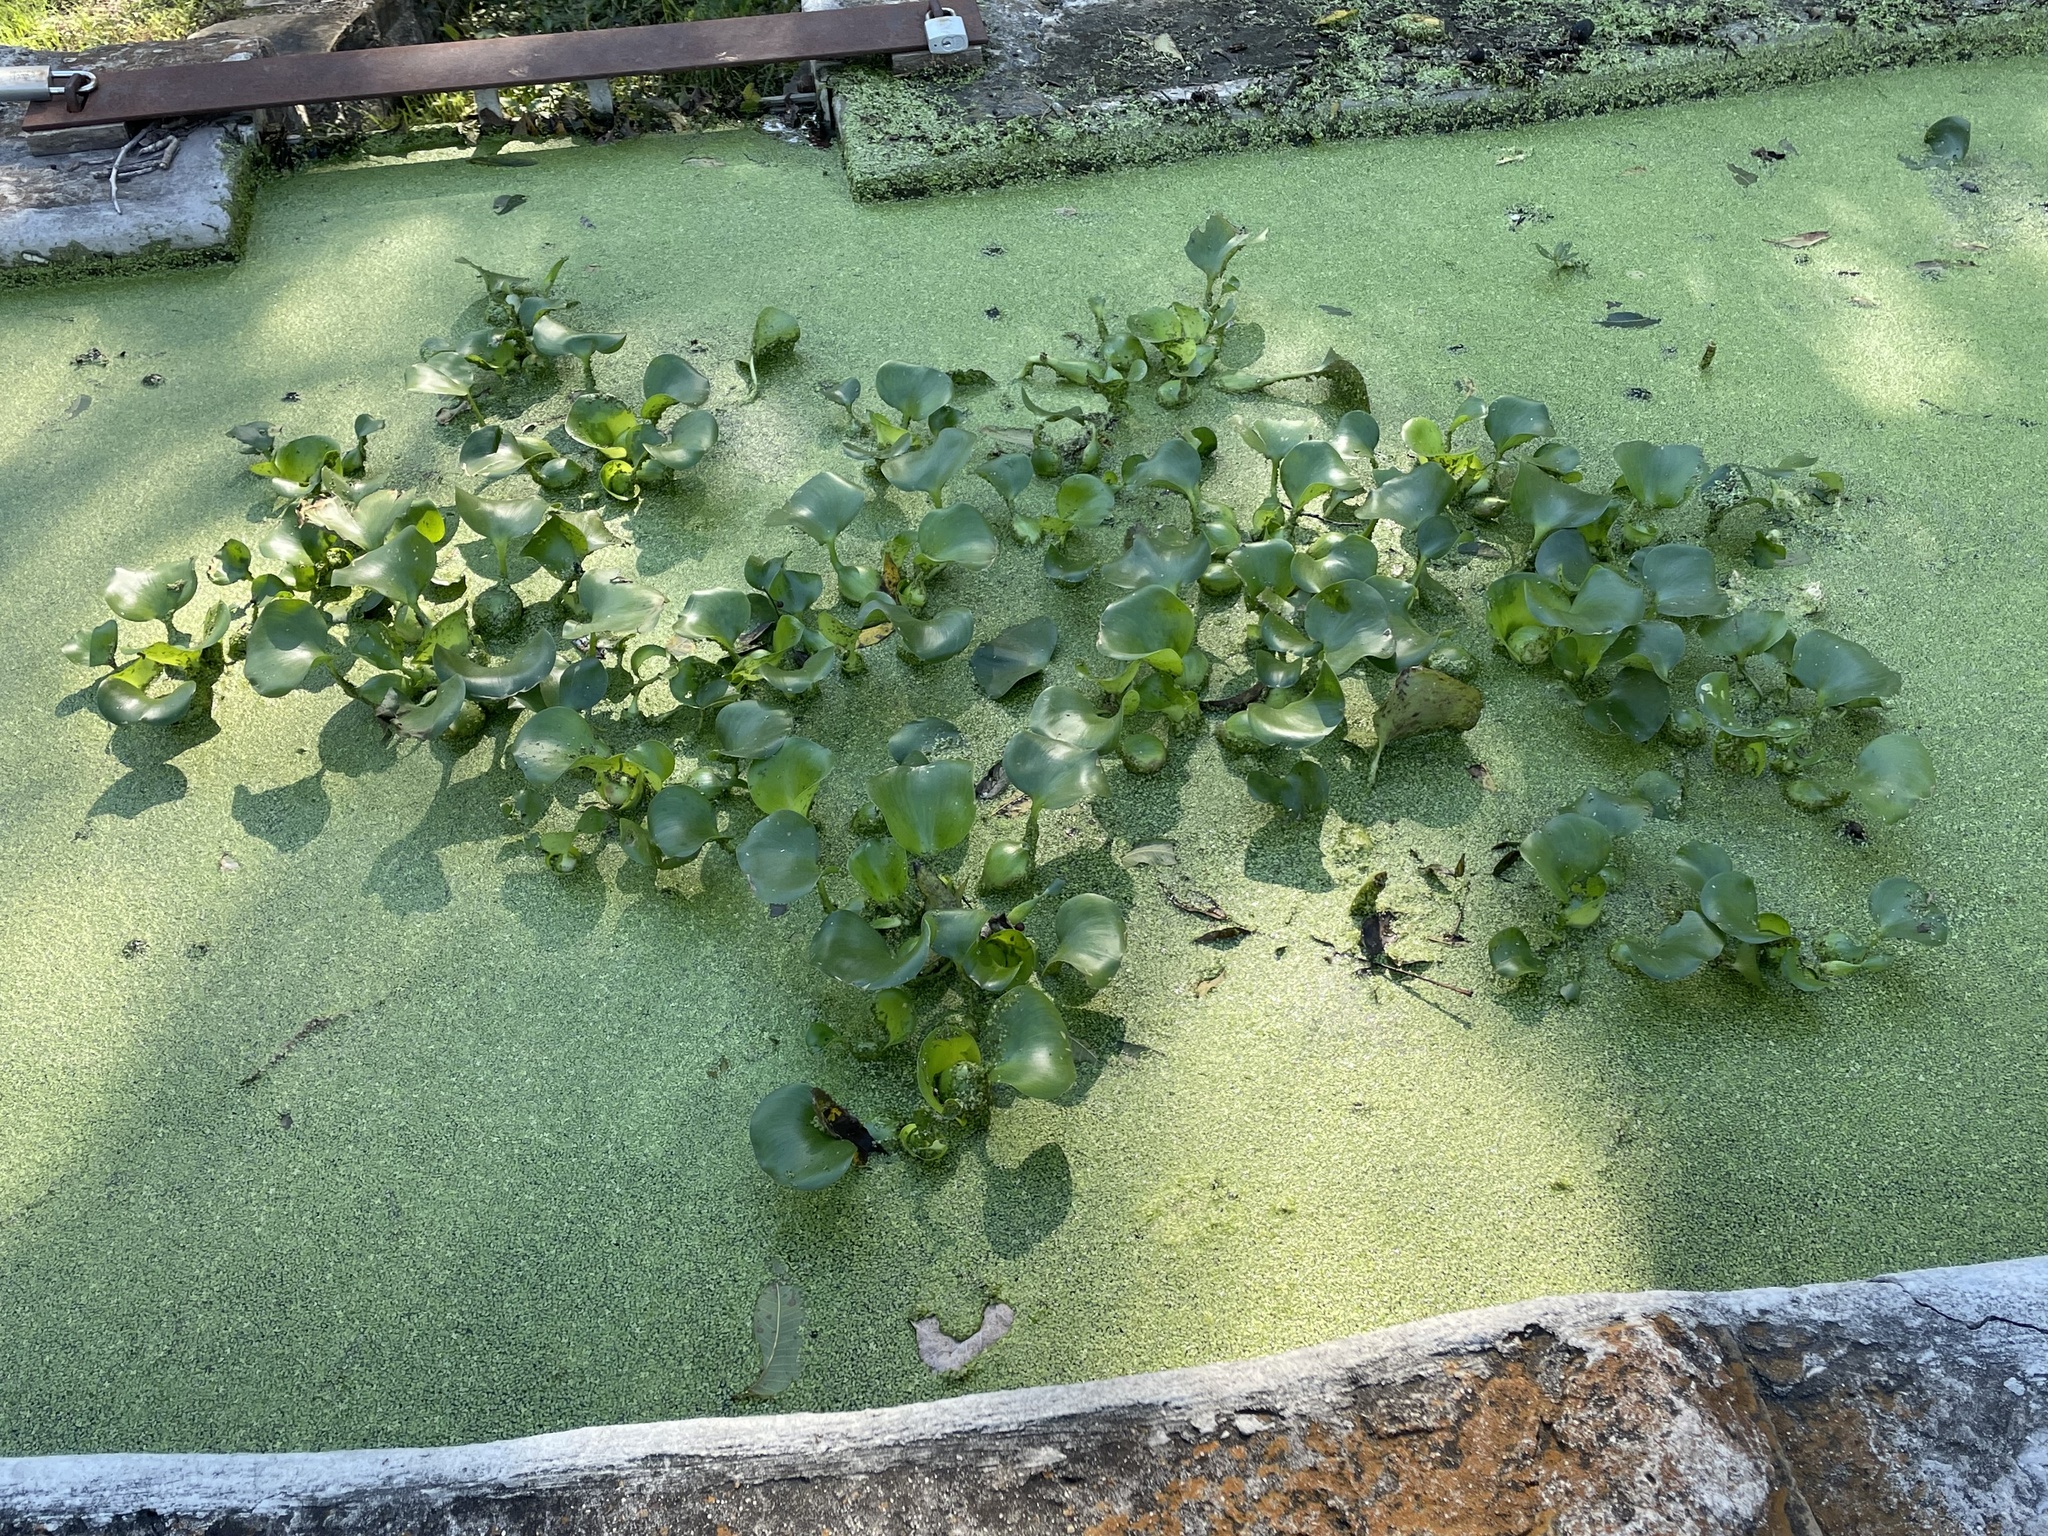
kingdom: Plantae
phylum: Tracheophyta
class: Liliopsida
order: Commelinales
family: Pontederiaceae
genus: Pontederia
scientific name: Pontederia crassipes
